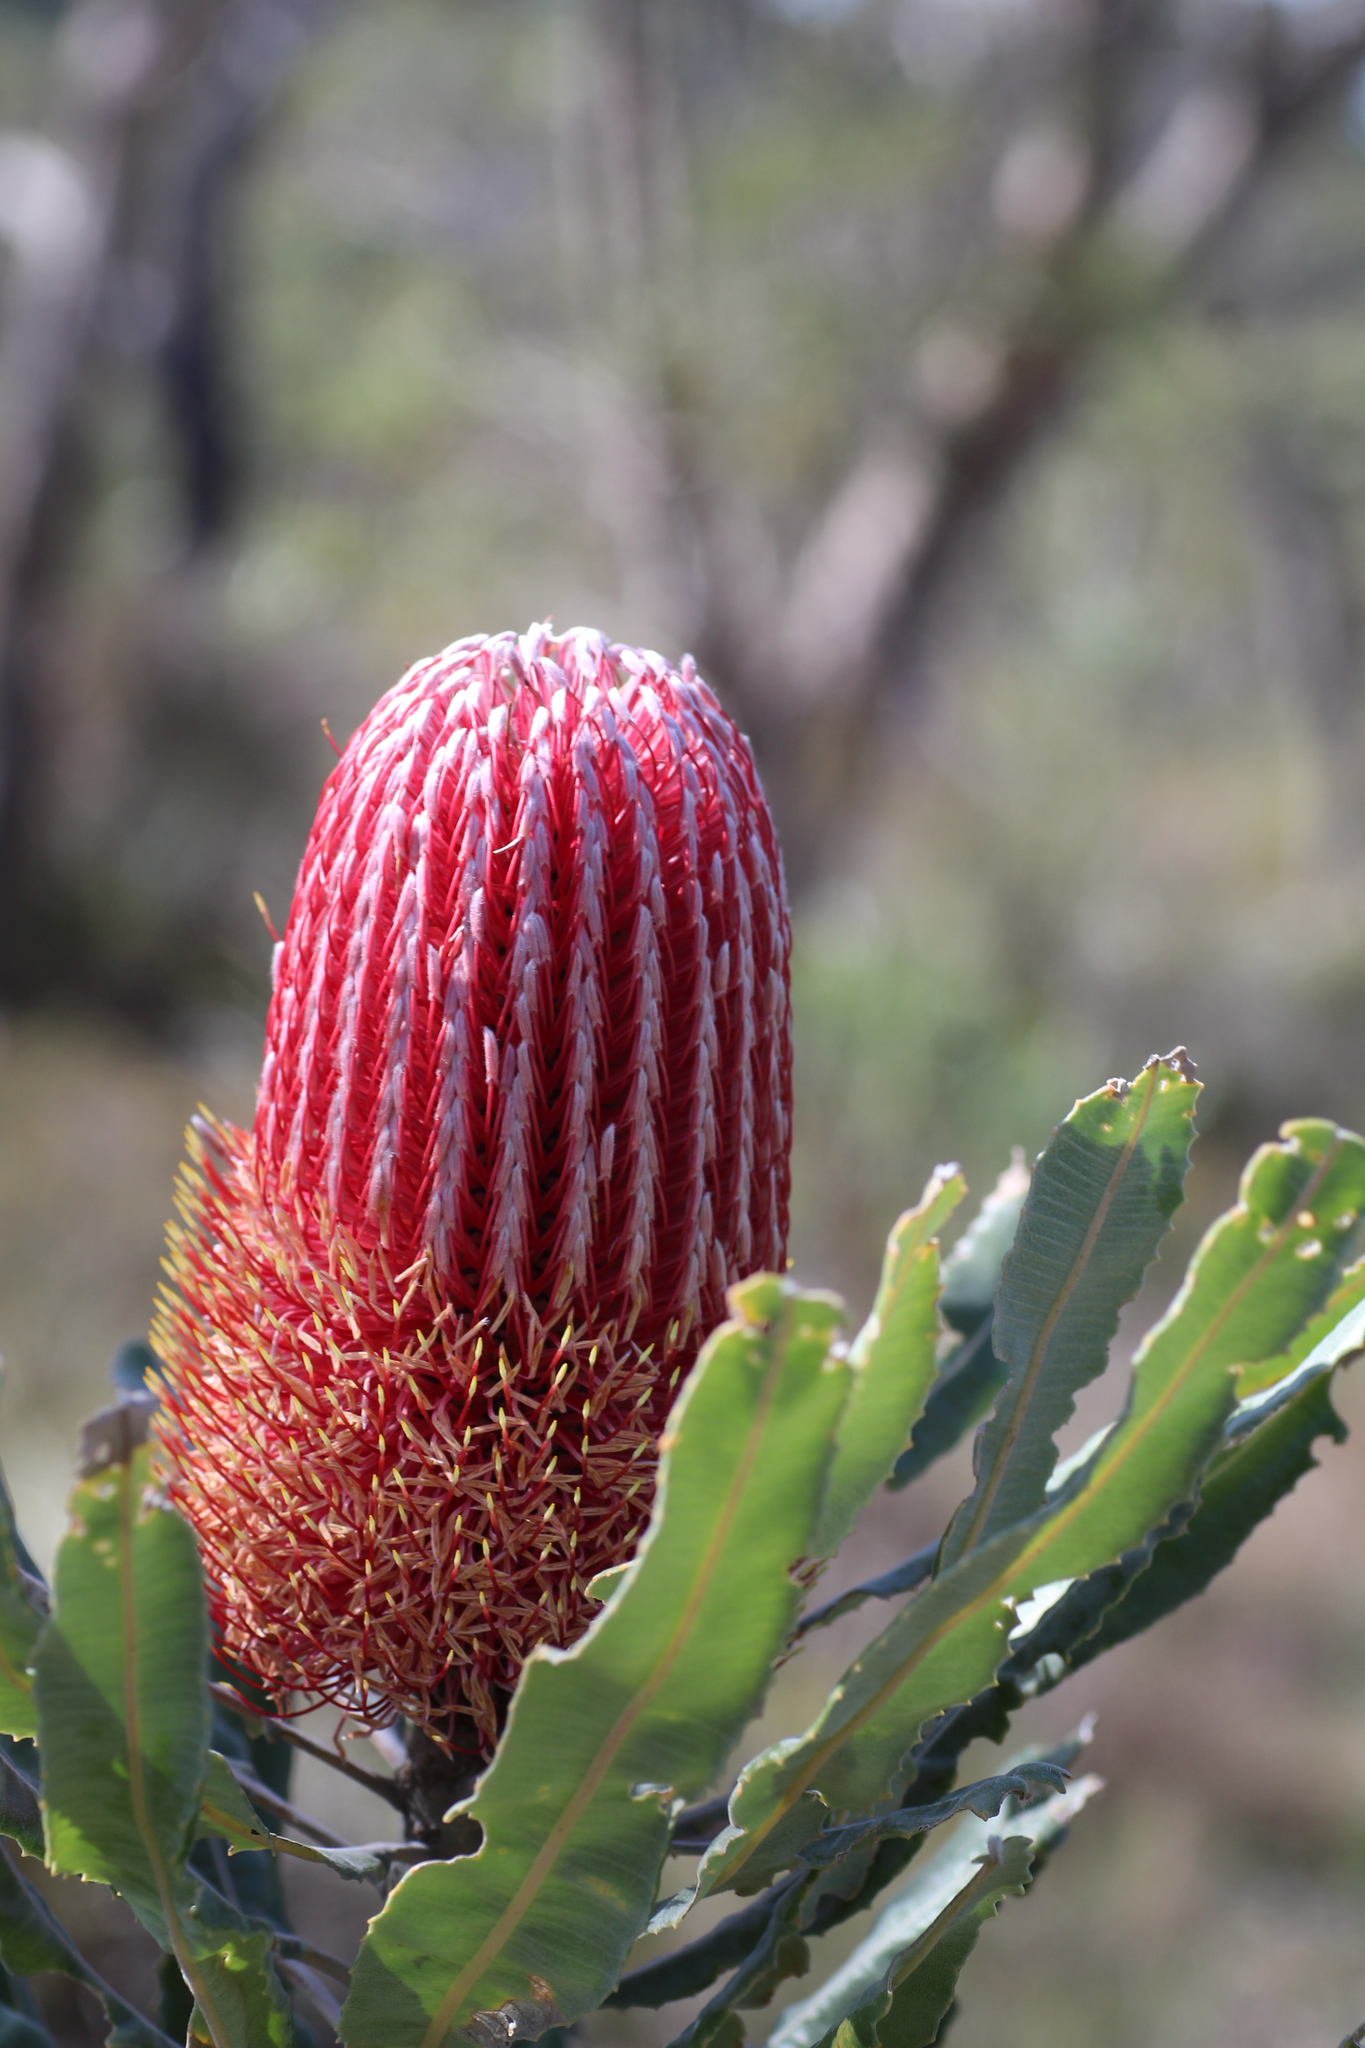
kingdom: Plantae
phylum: Tracheophyta
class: Magnoliopsida
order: Proteales
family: Proteaceae
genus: Banksia
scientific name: Banksia menziesii
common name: Menzie's banksia
